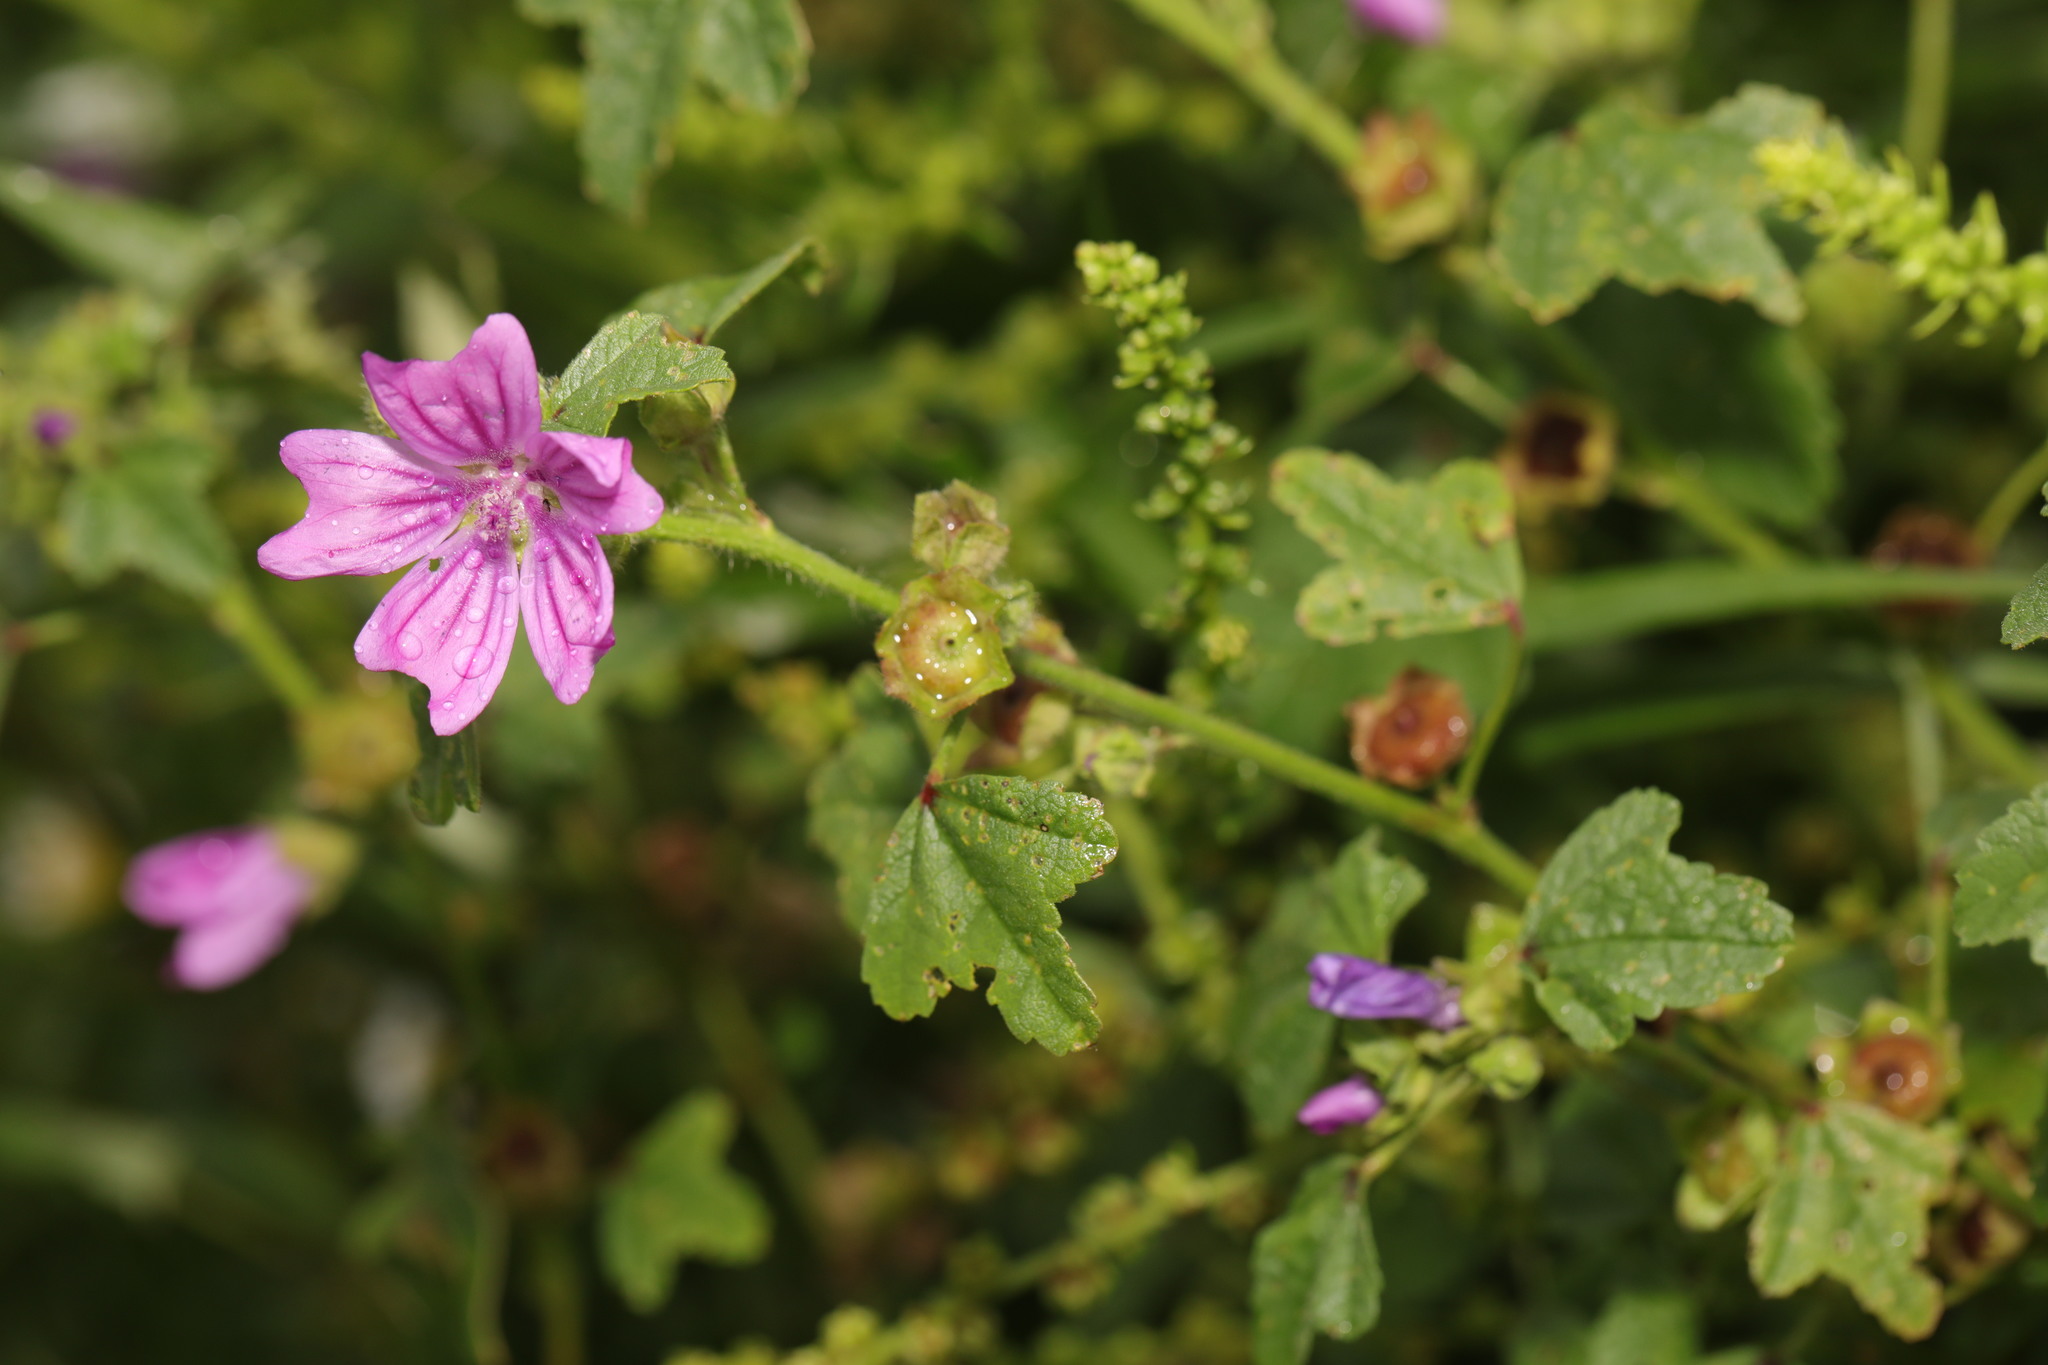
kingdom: Plantae
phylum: Tracheophyta
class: Magnoliopsida
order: Malvales
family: Malvaceae
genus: Malva
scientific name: Malva sylvestris
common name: Common mallow
